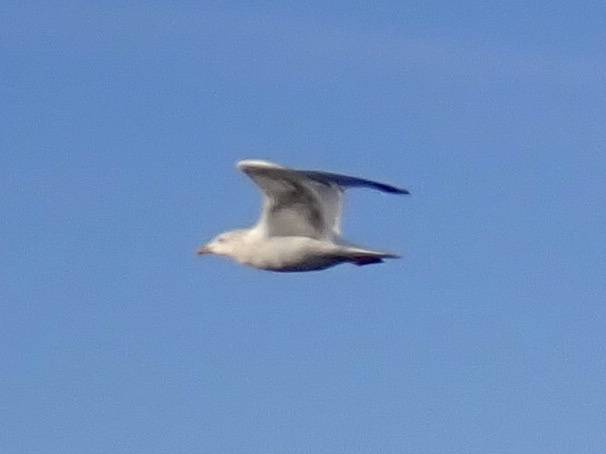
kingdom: Animalia
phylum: Chordata
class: Aves
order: Charadriiformes
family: Laridae
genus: Larus
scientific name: Larus
